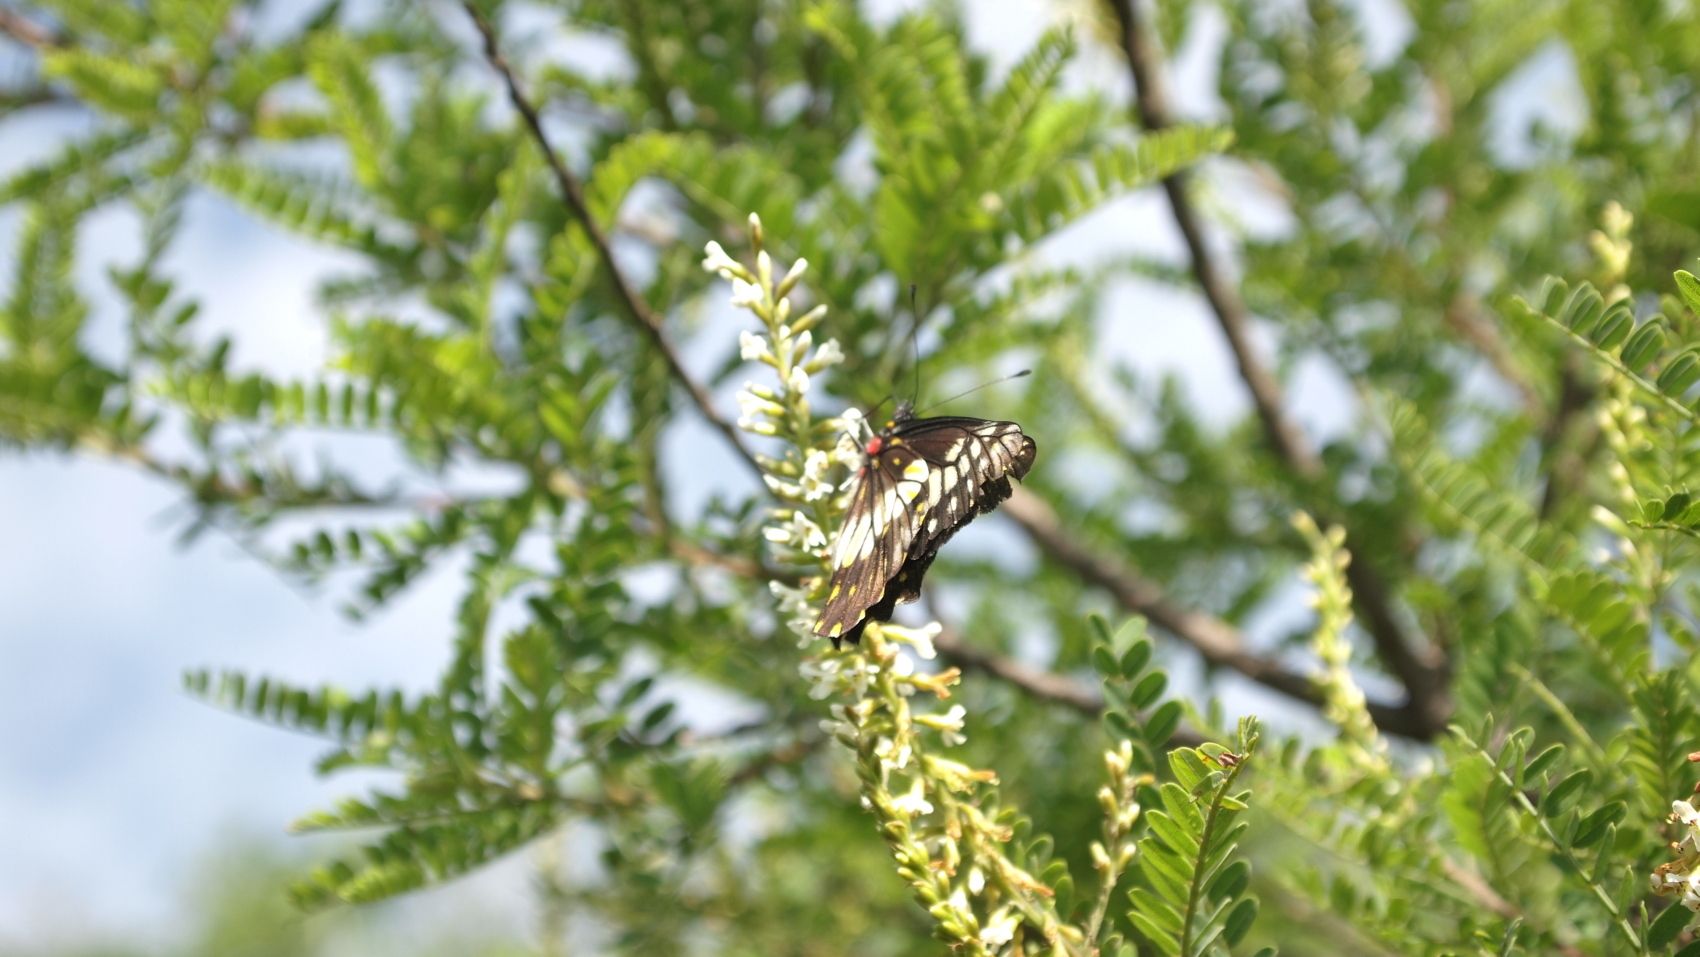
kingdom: Animalia
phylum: Arthropoda
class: Insecta
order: Lepidoptera
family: Pieridae
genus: Archonias
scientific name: Archonias nimbice
